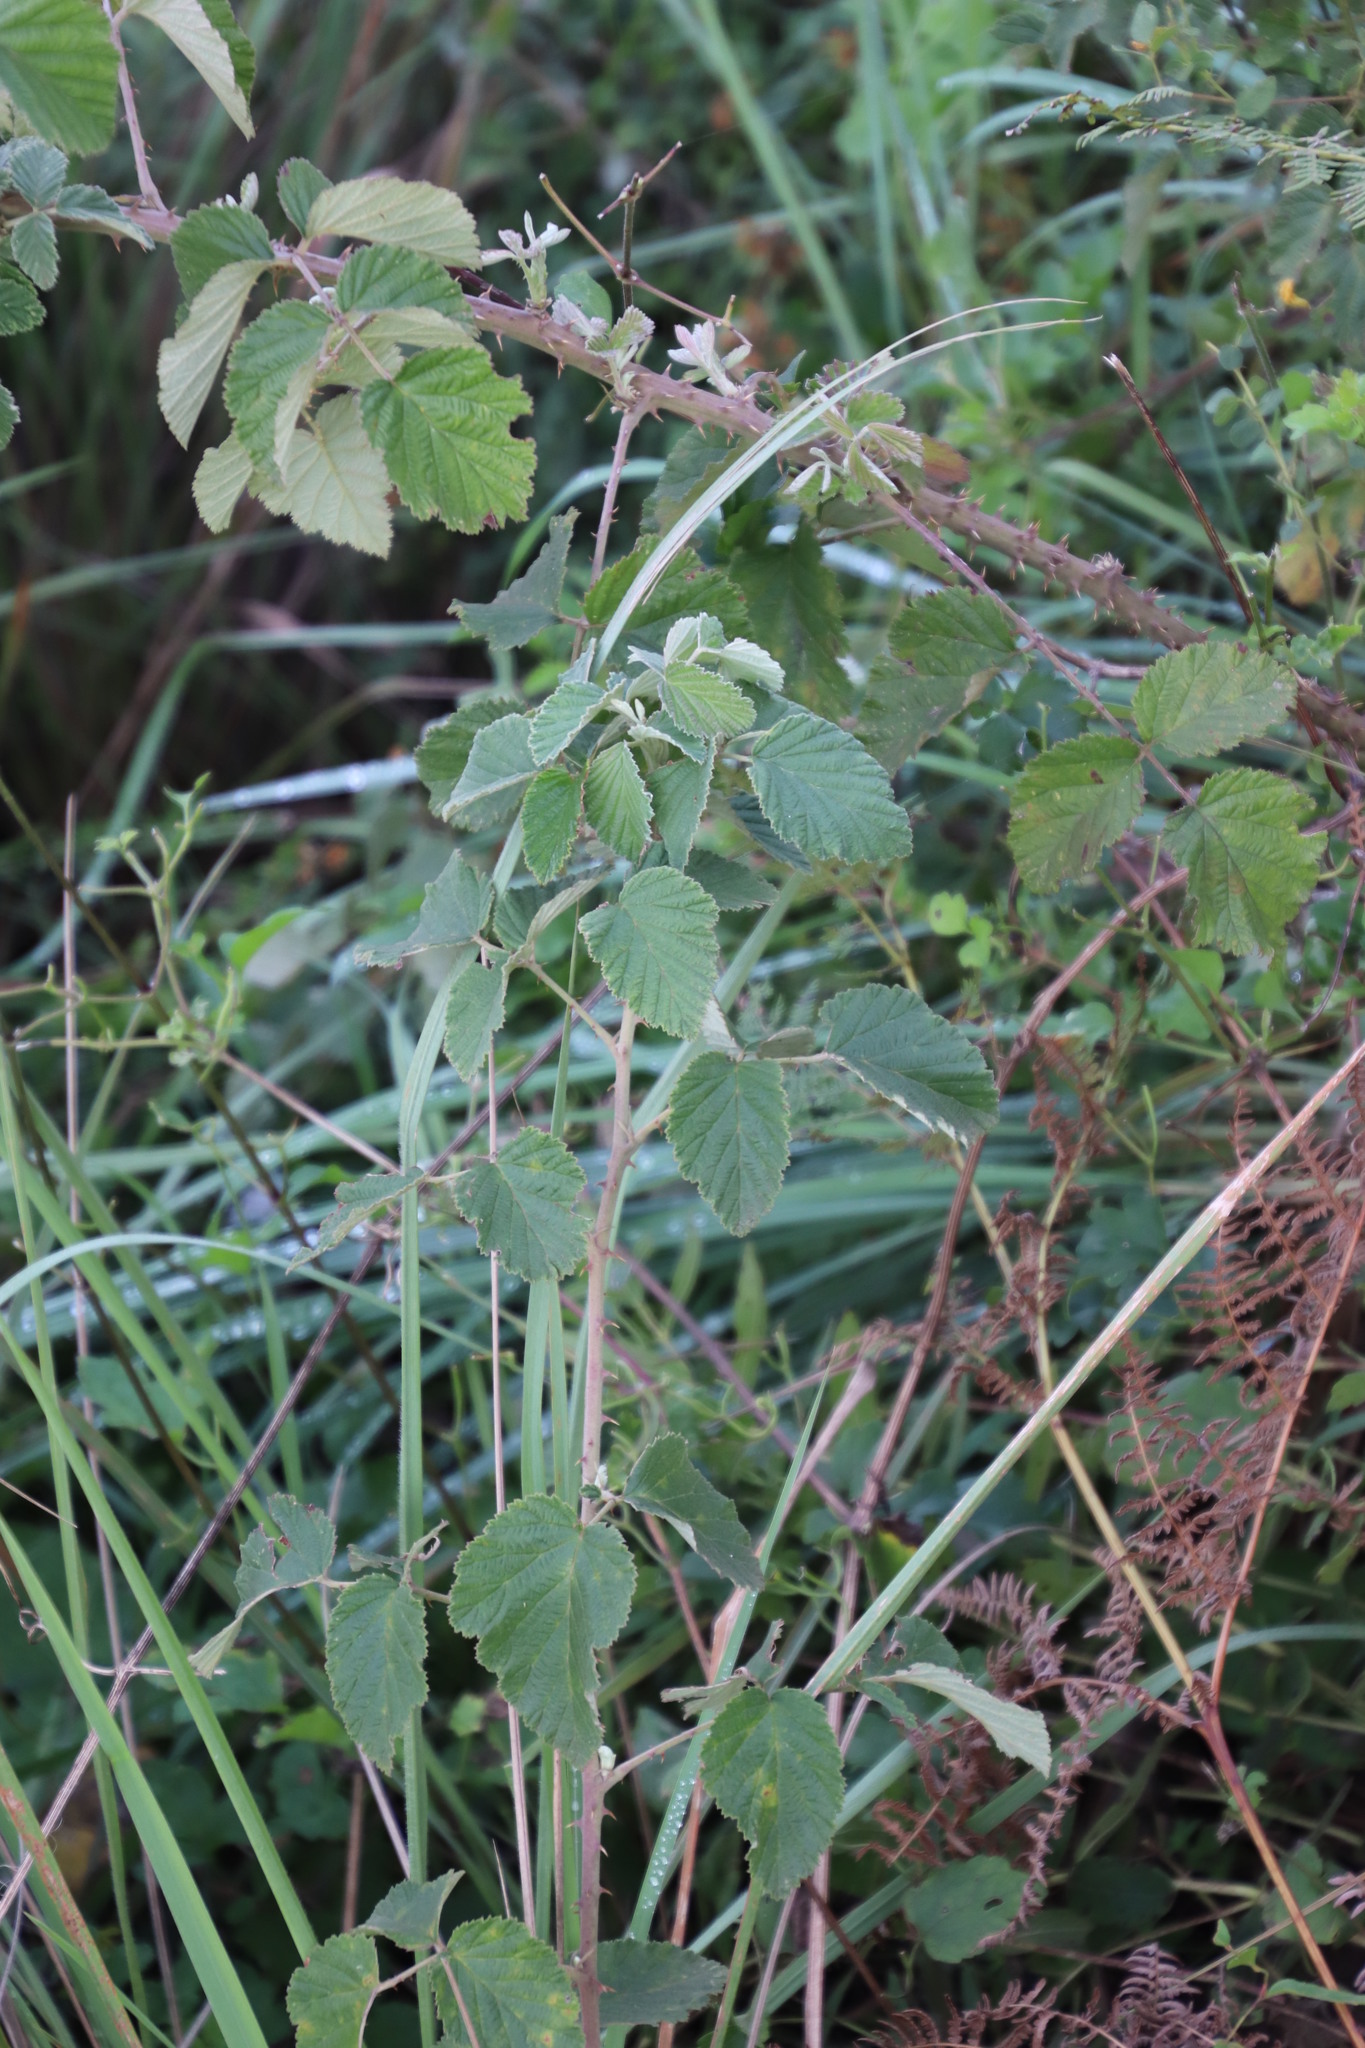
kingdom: Plantae
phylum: Tracheophyta
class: Magnoliopsida
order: Rosales
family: Rosaceae
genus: Rubus
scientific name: Rubus rigidus
